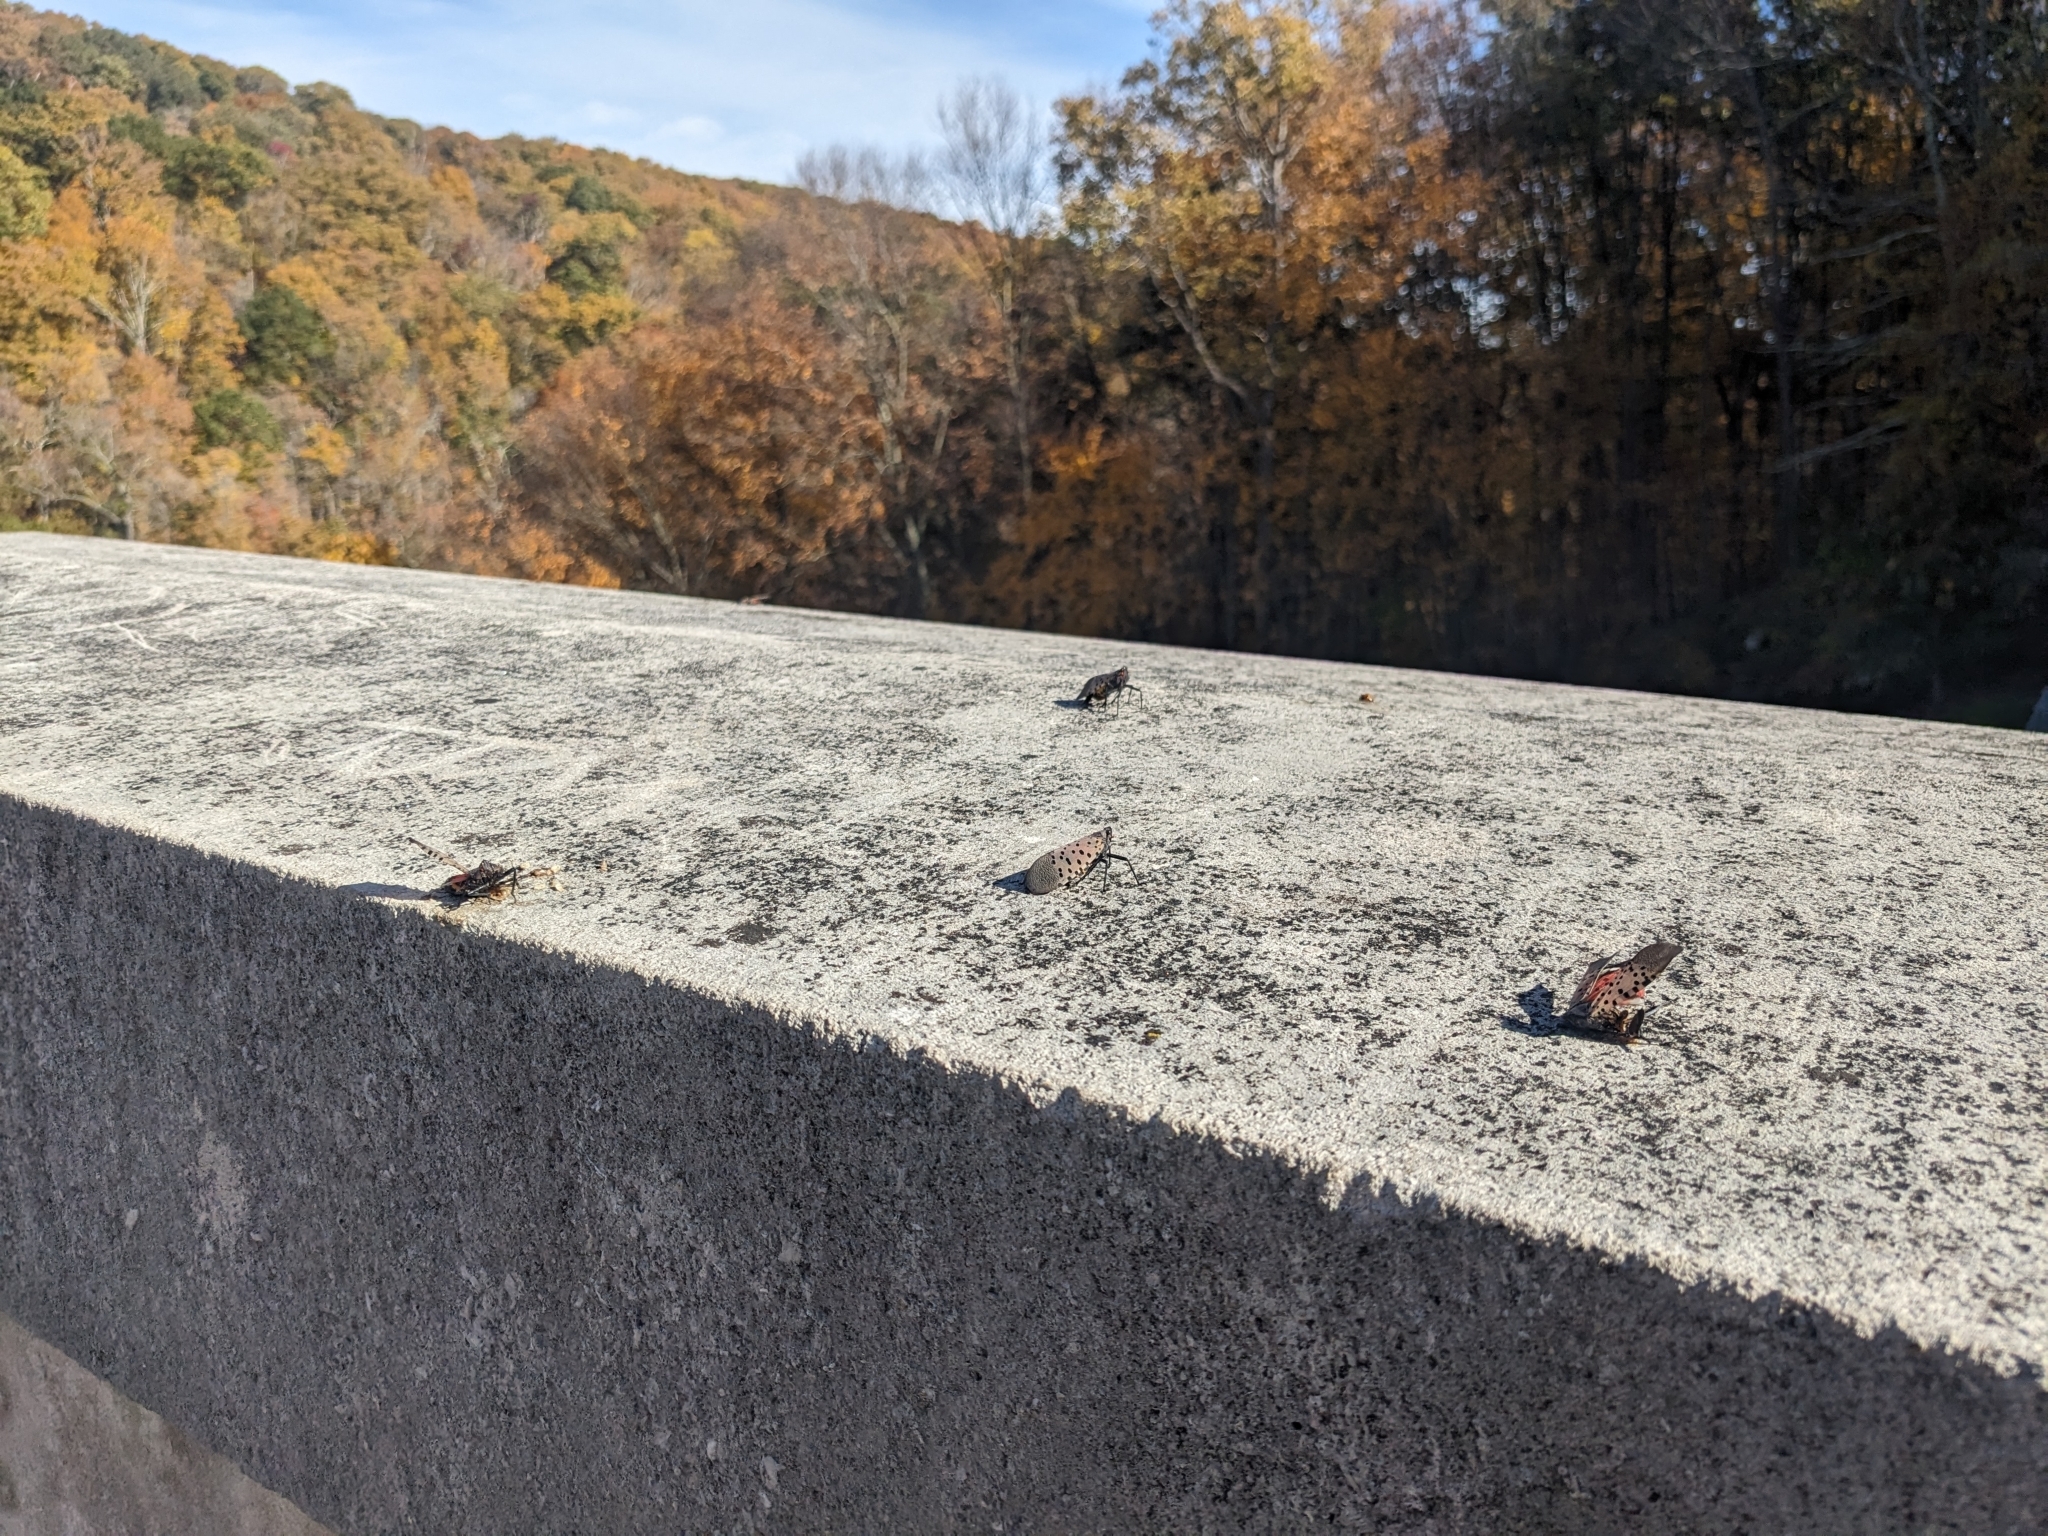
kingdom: Animalia
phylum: Arthropoda
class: Insecta
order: Hemiptera
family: Fulgoridae
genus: Lycorma
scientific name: Lycorma delicatula
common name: Spotted lanternfly
